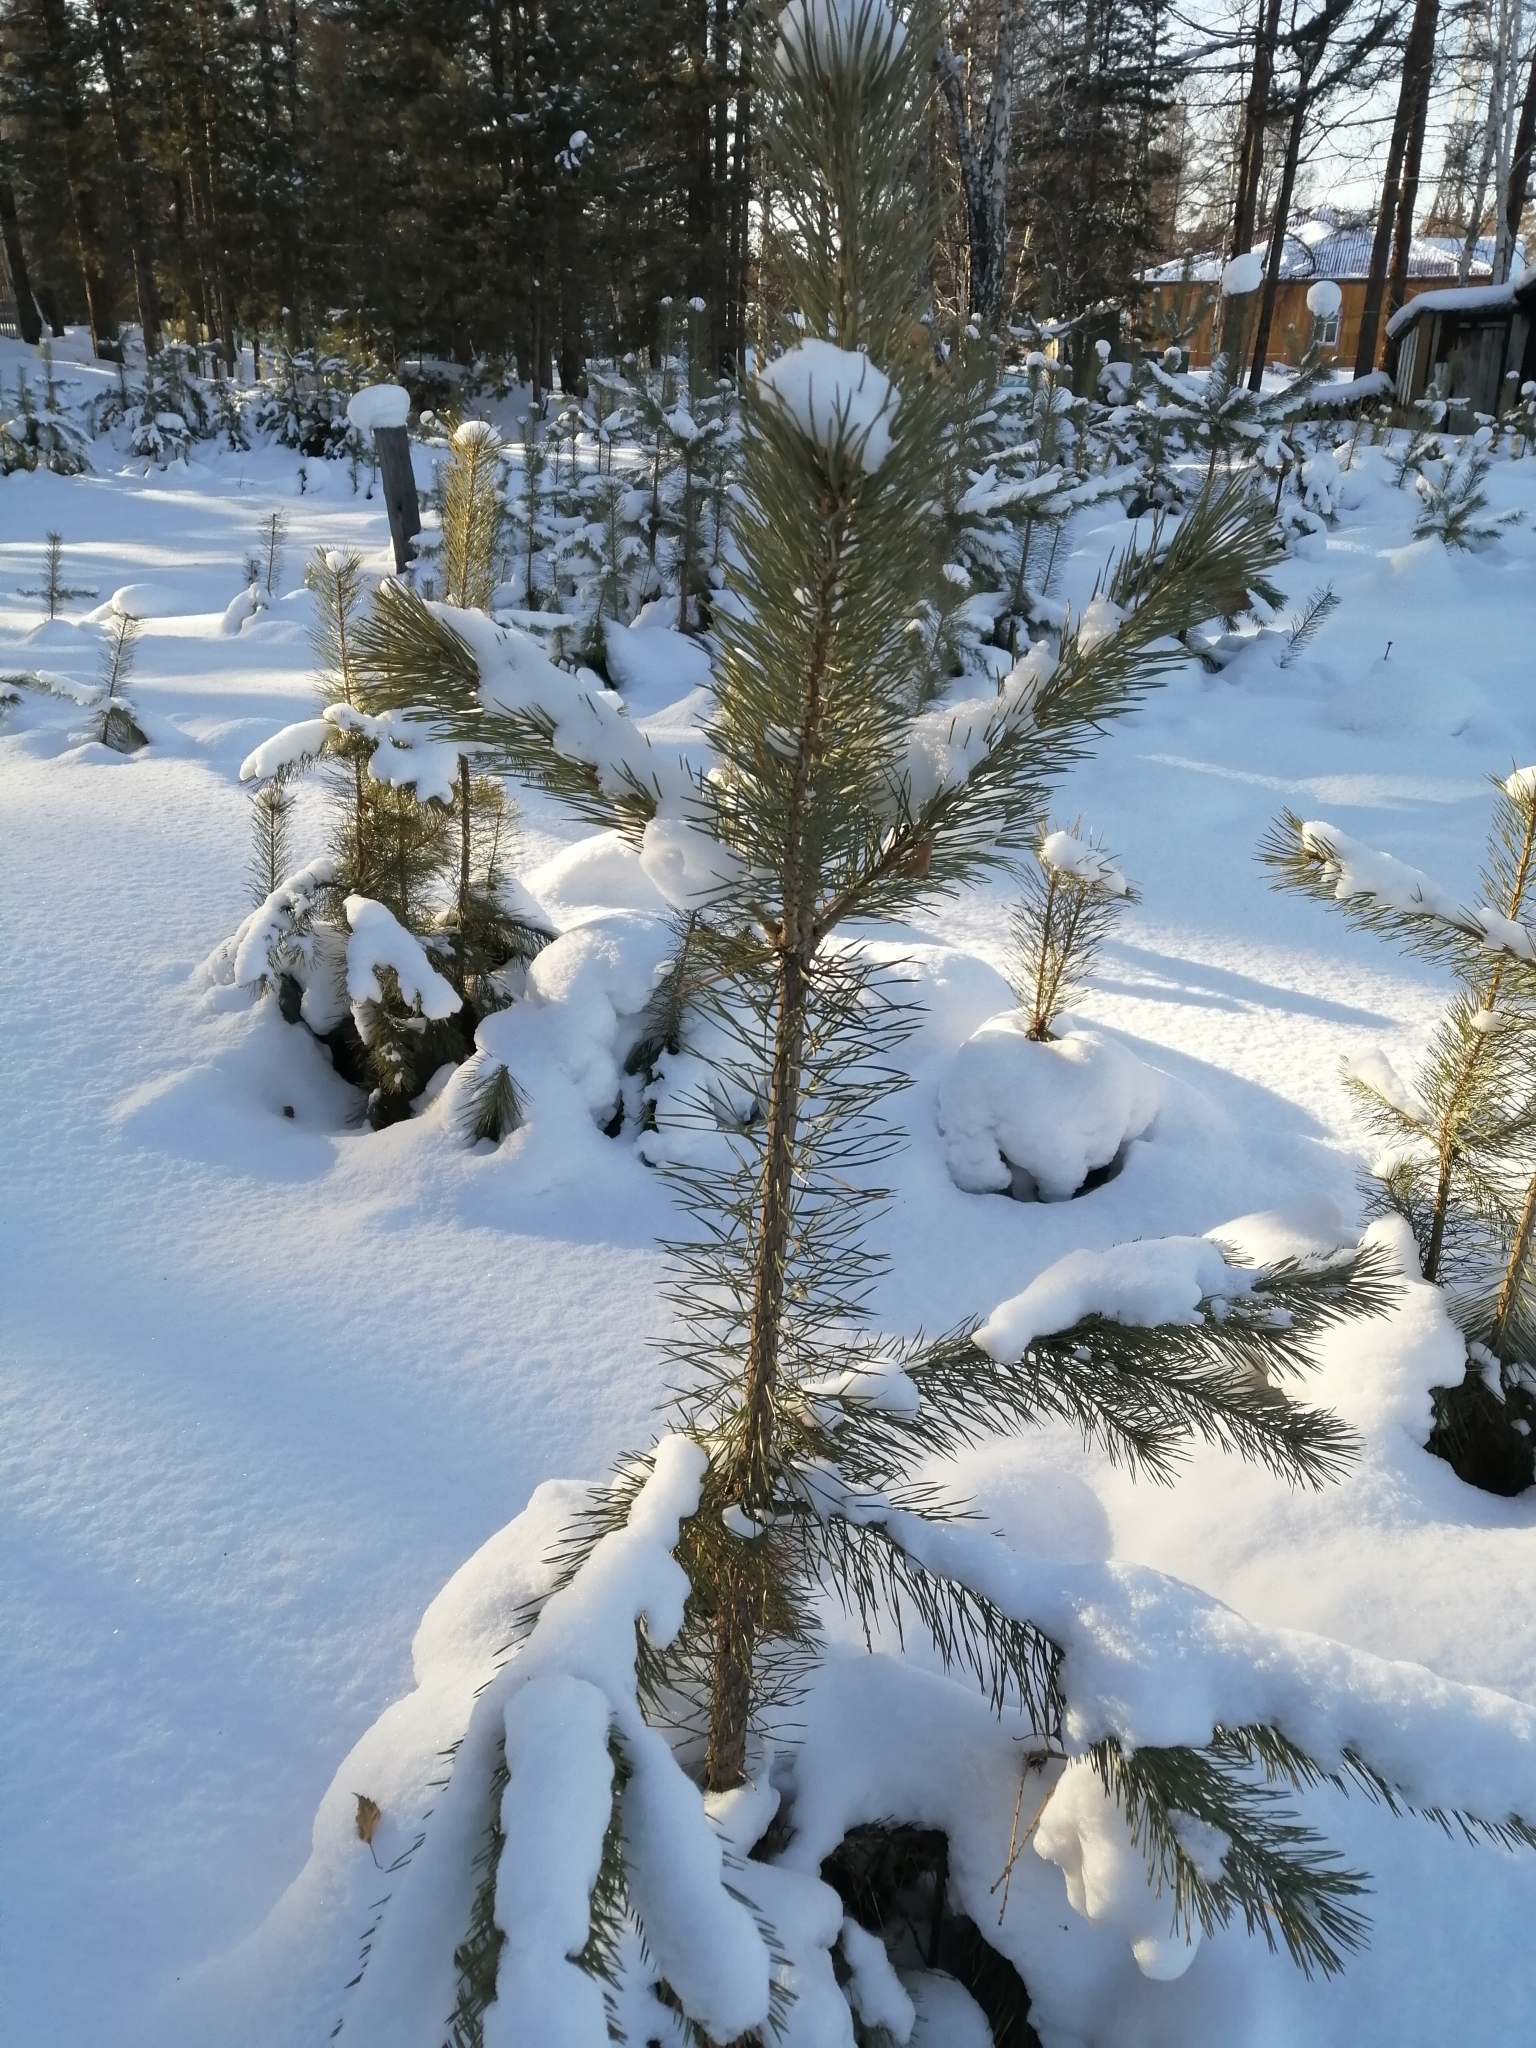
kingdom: Plantae
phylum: Tracheophyta
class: Pinopsida
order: Pinales
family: Pinaceae
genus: Pinus
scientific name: Pinus sylvestris
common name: Scots pine
